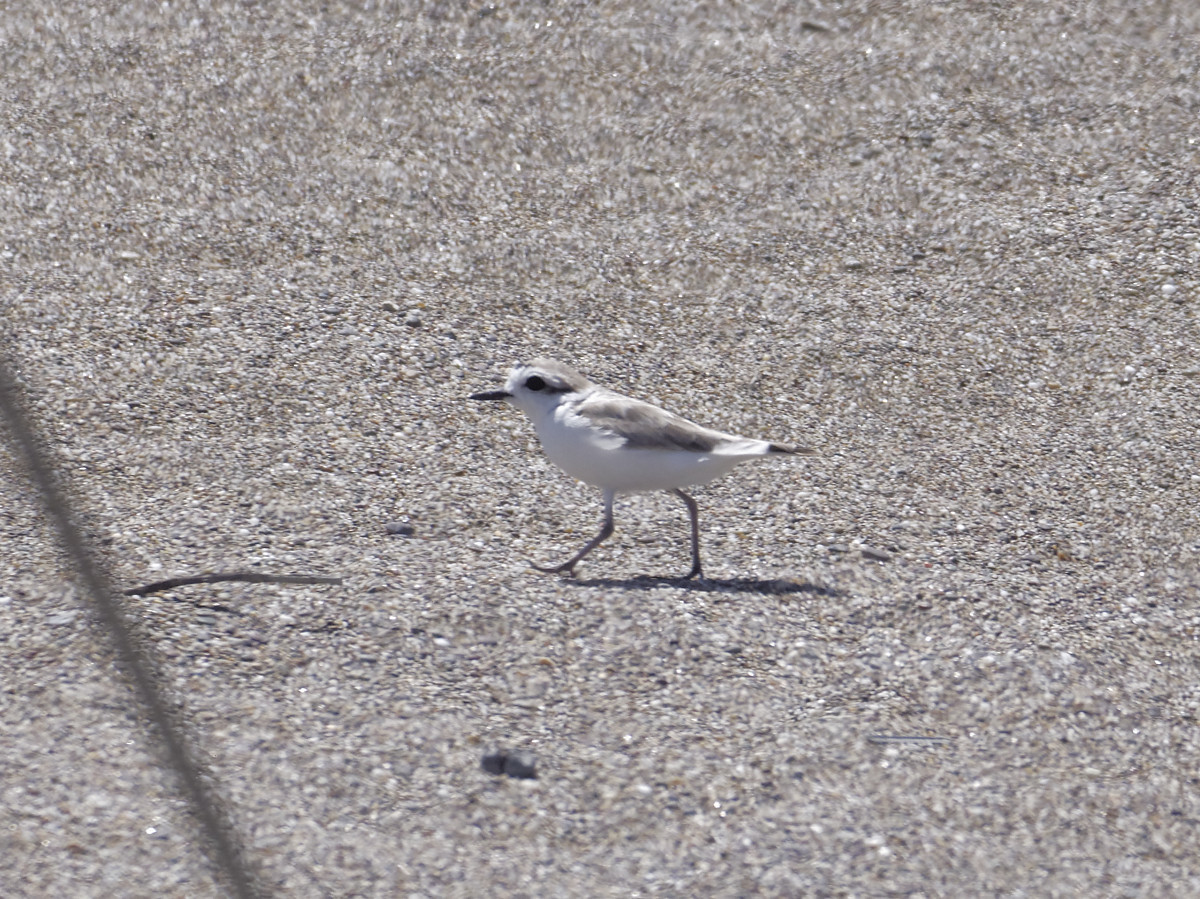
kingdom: Animalia
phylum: Chordata
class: Aves
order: Charadriiformes
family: Charadriidae
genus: Anarhynchus
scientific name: Anarhynchus
